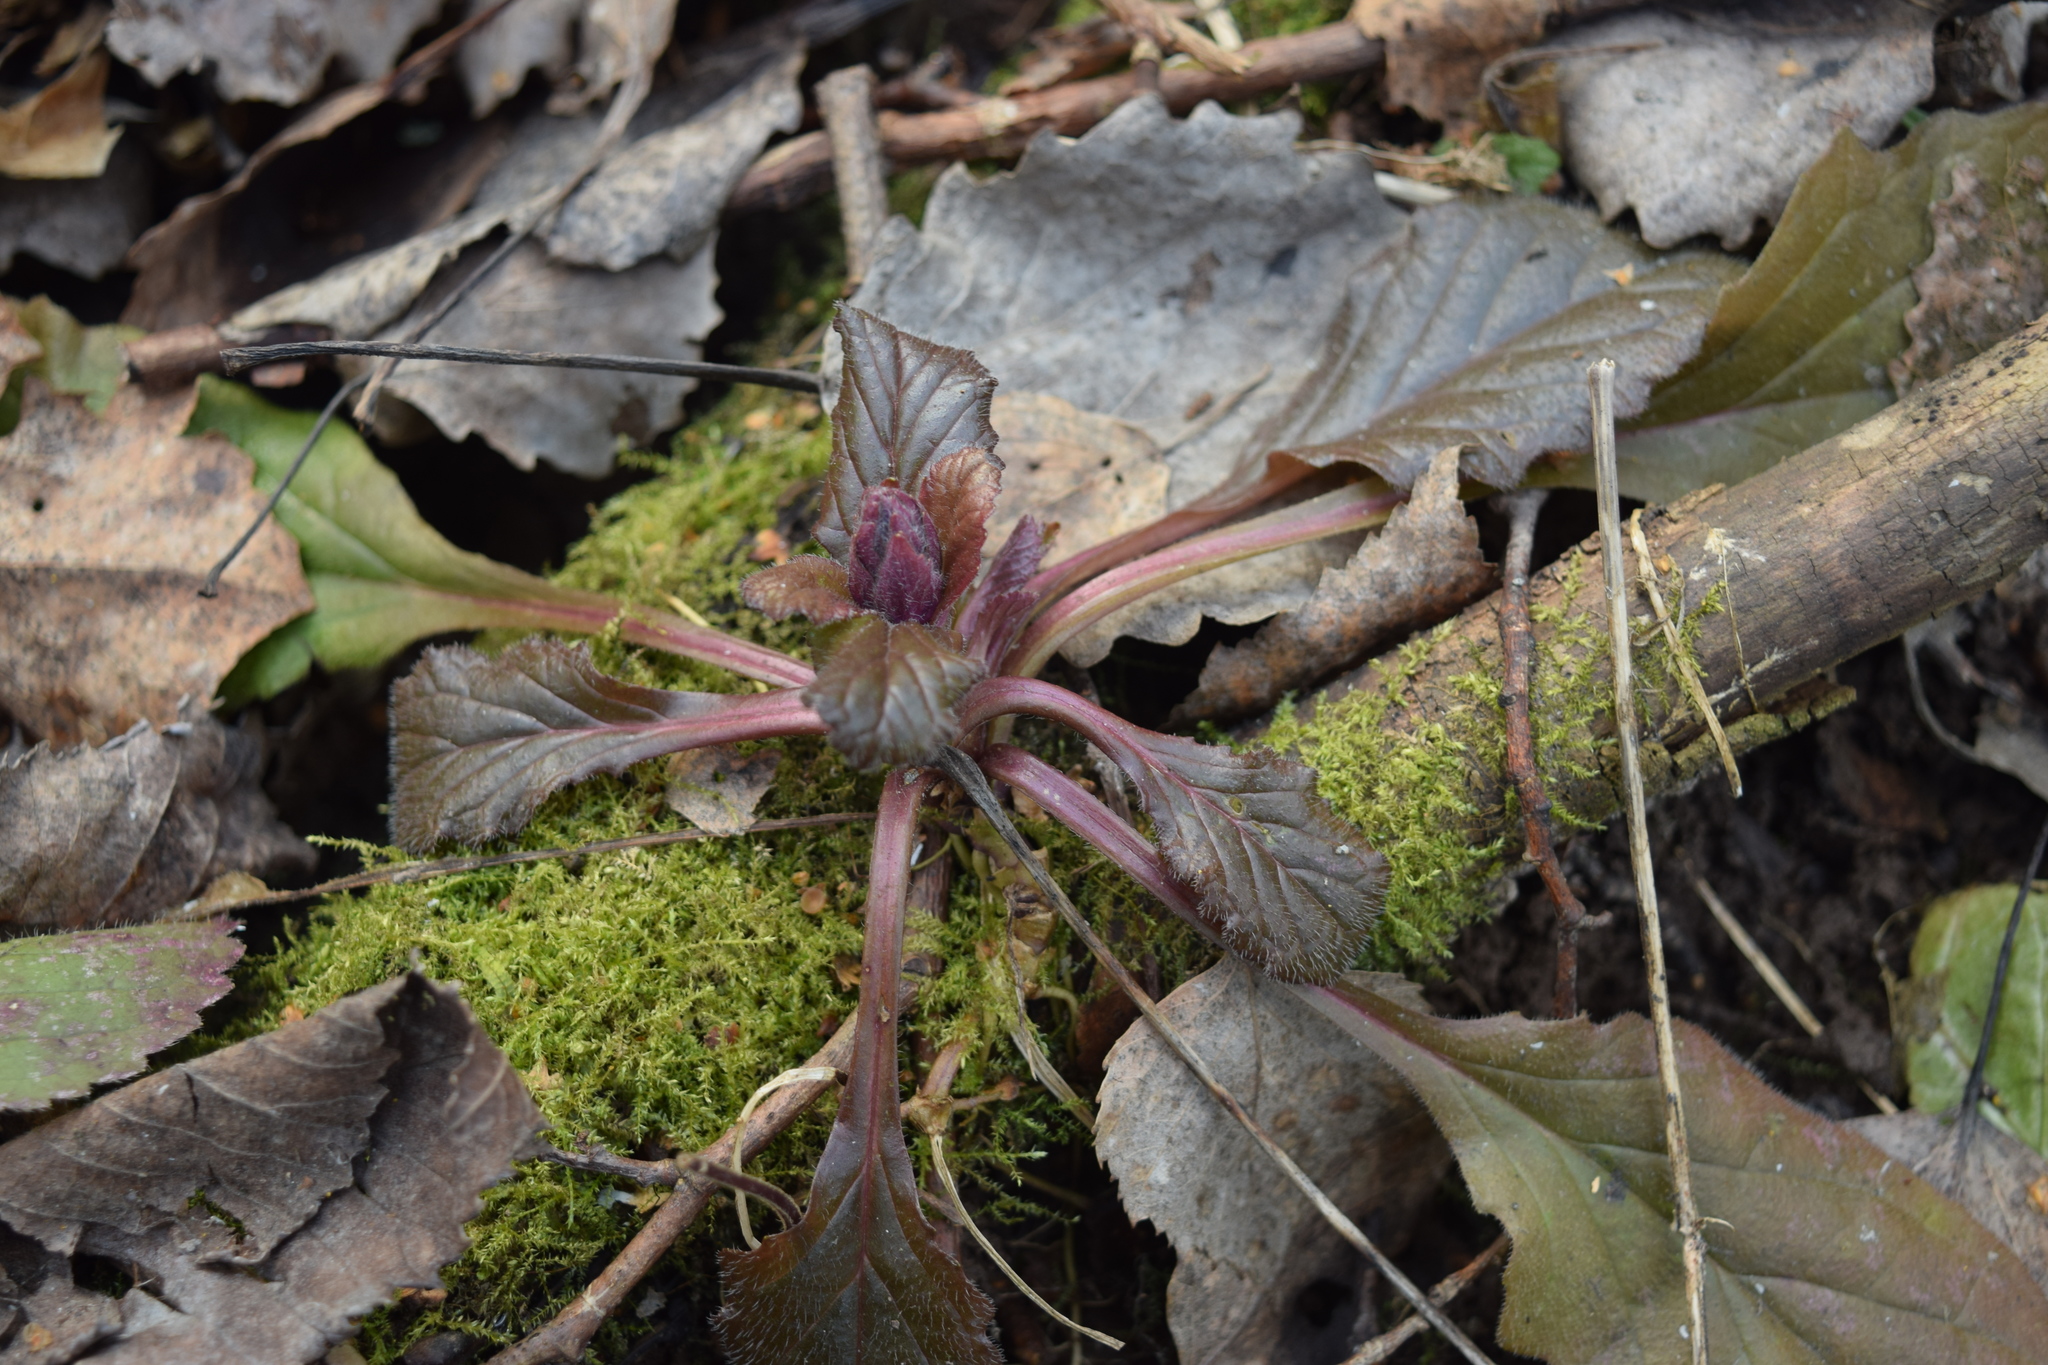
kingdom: Plantae
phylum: Tracheophyta
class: Magnoliopsida
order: Lamiales
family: Lamiaceae
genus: Ajuga
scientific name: Ajuga reptans
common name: Bugle
